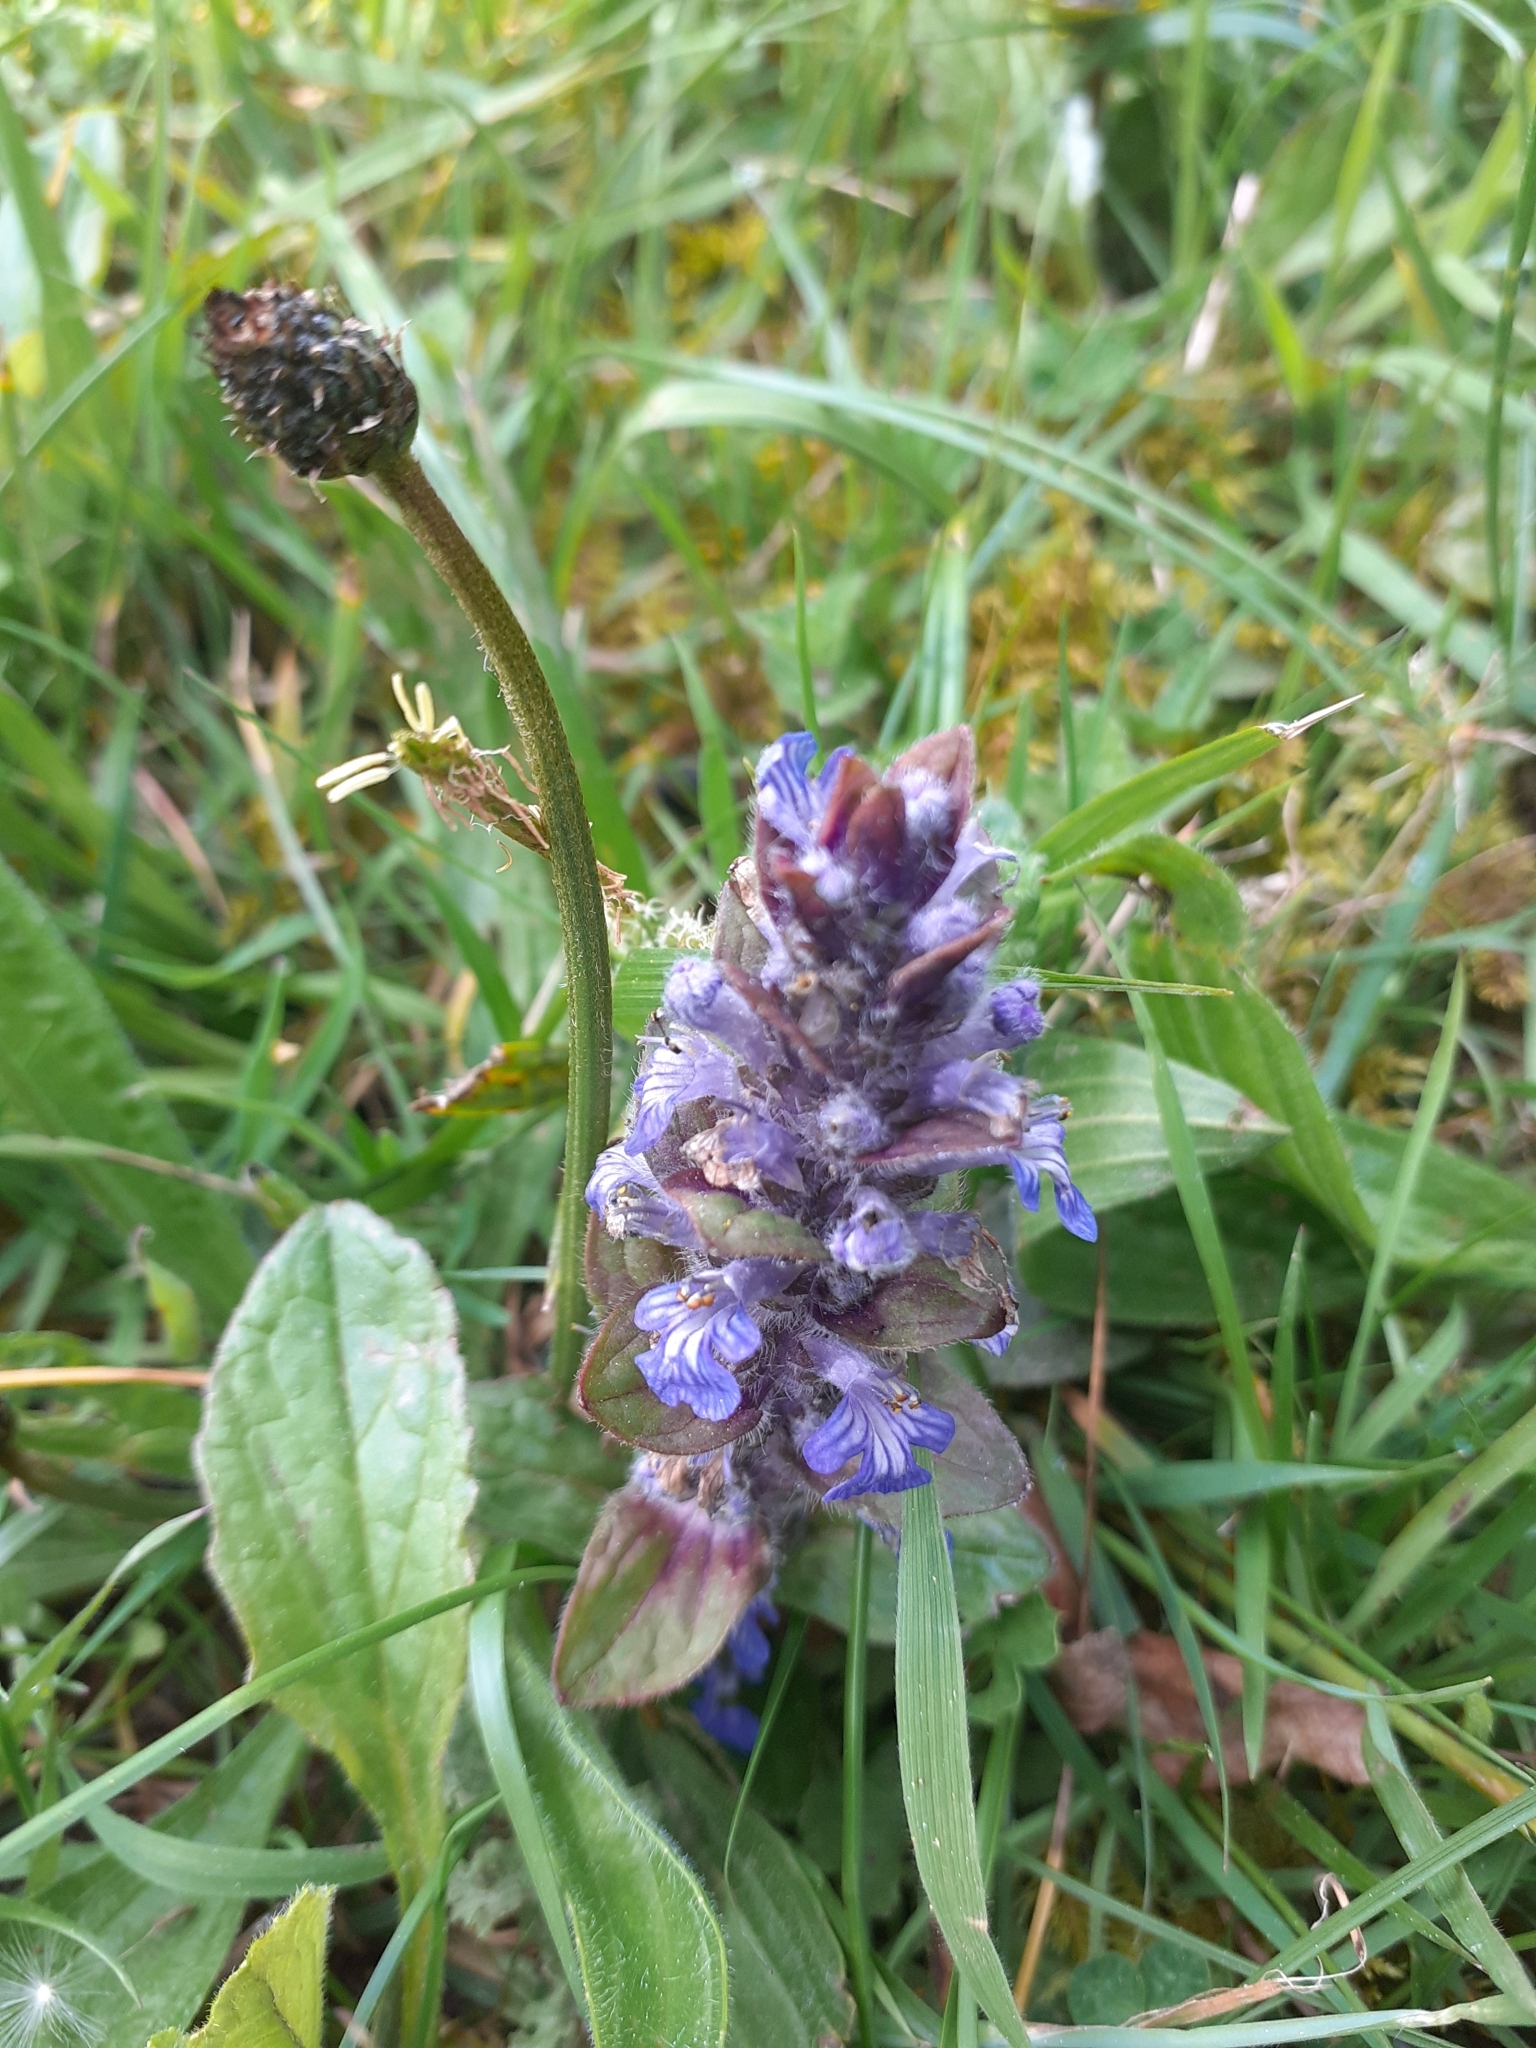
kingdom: Plantae
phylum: Tracheophyta
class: Magnoliopsida
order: Lamiales
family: Lamiaceae
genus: Ajuga
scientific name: Ajuga reptans
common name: Bugle
